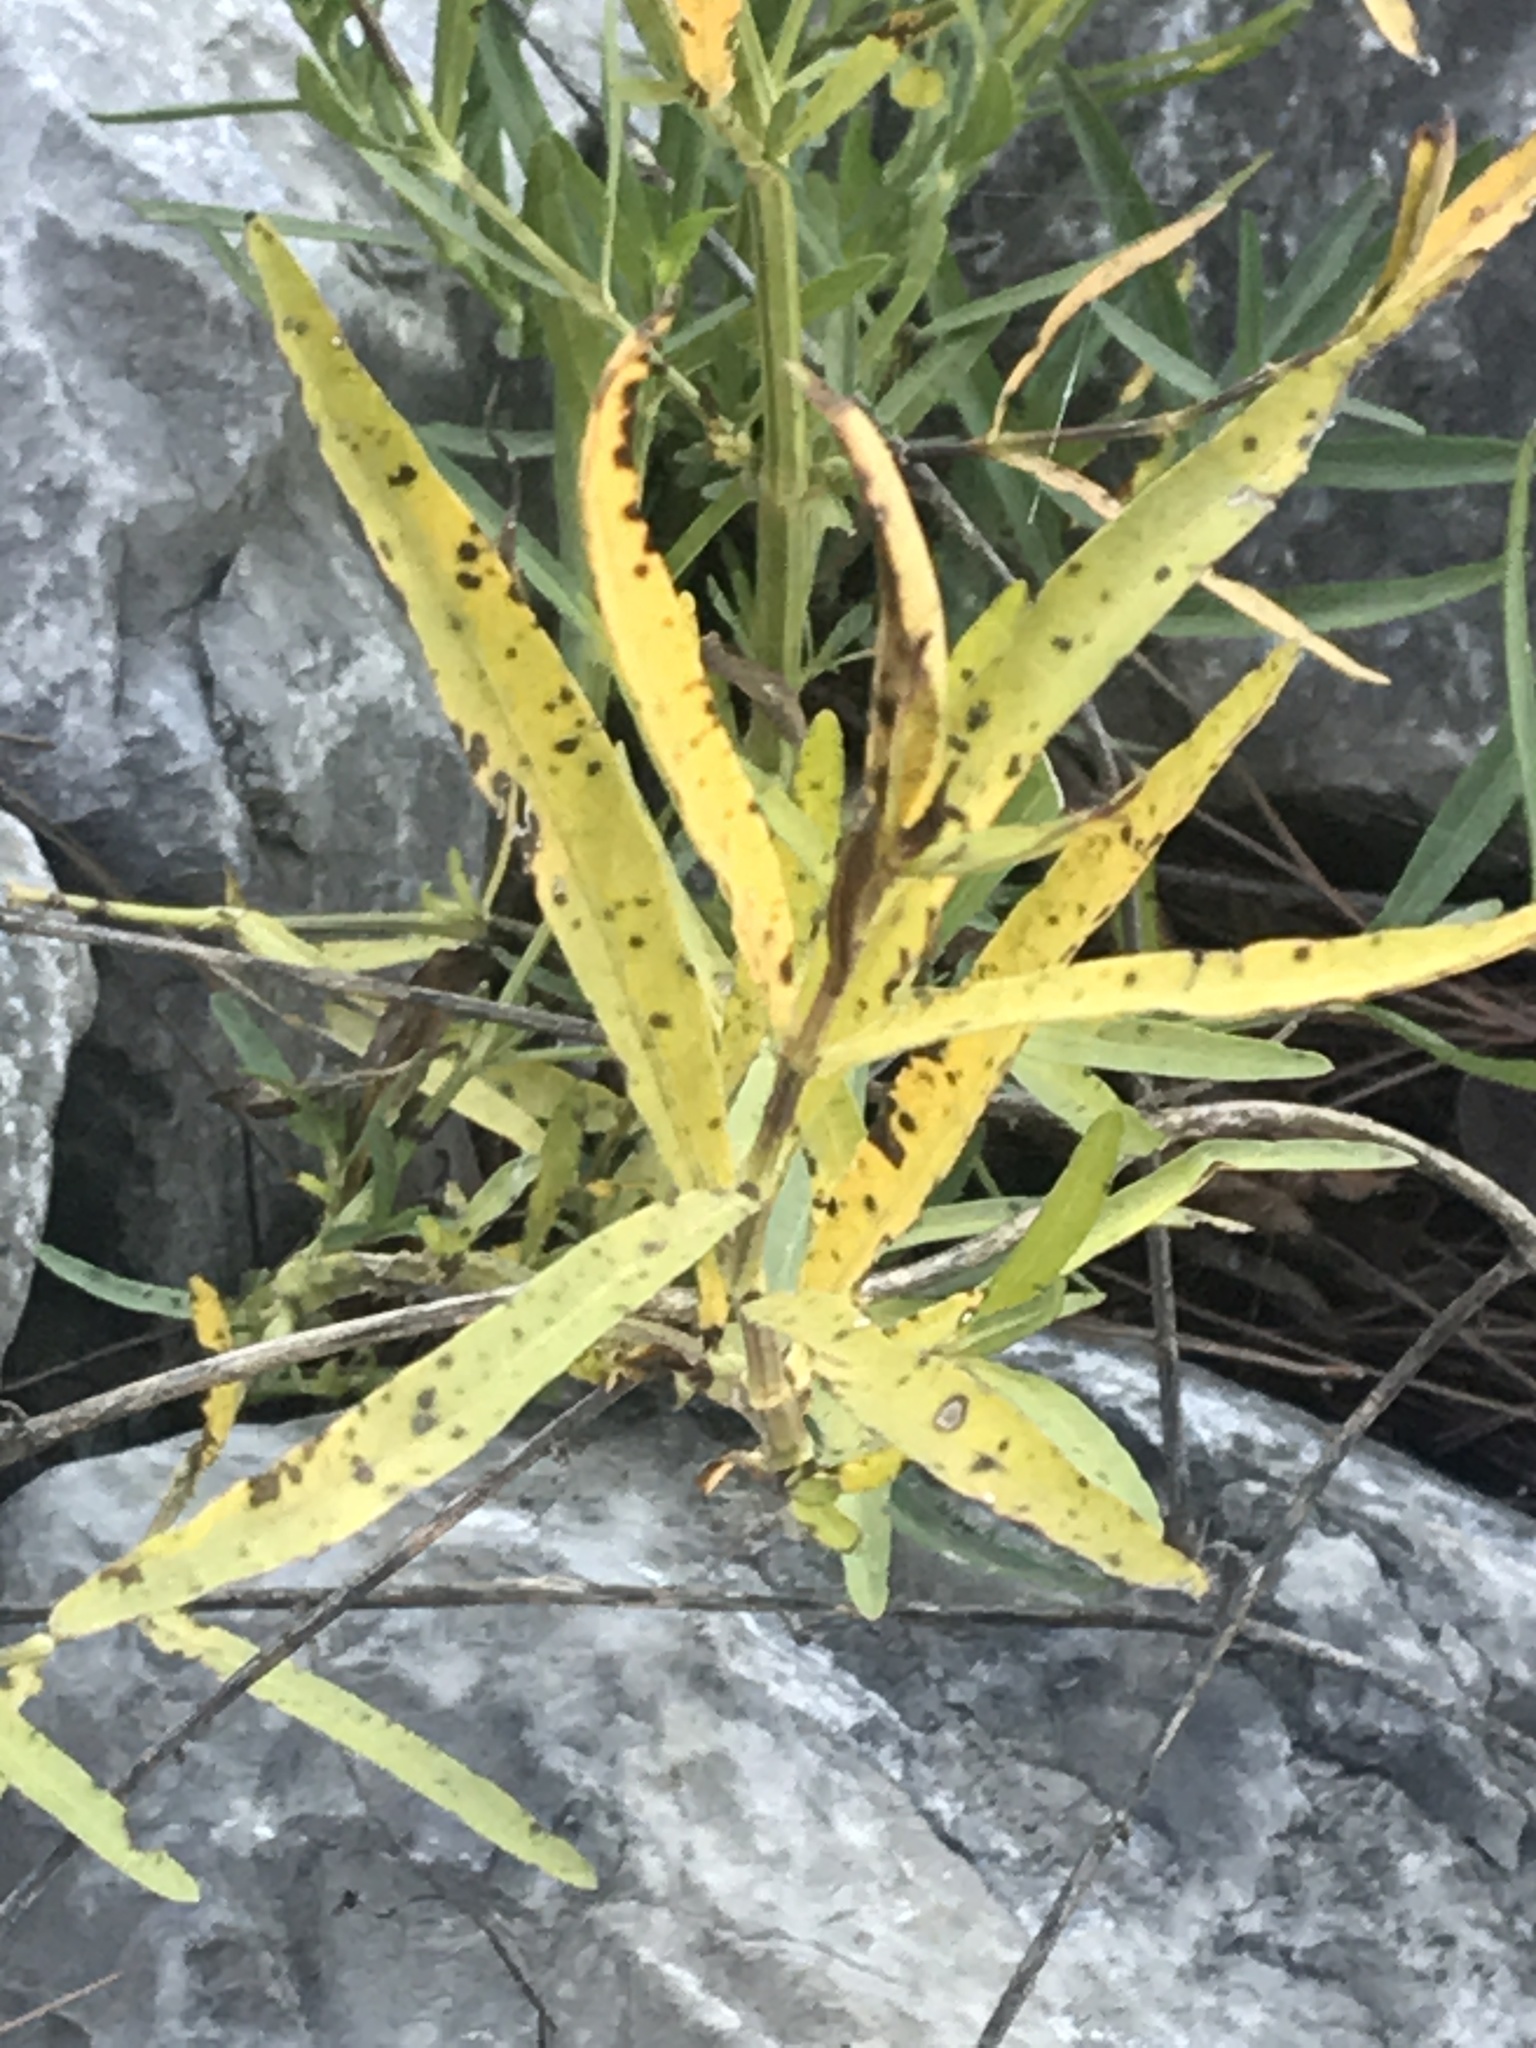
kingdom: Plantae
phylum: Tracheophyta
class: Magnoliopsida
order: Lamiales
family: Acanthaceae
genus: Dianthera
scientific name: Dianthera americana
